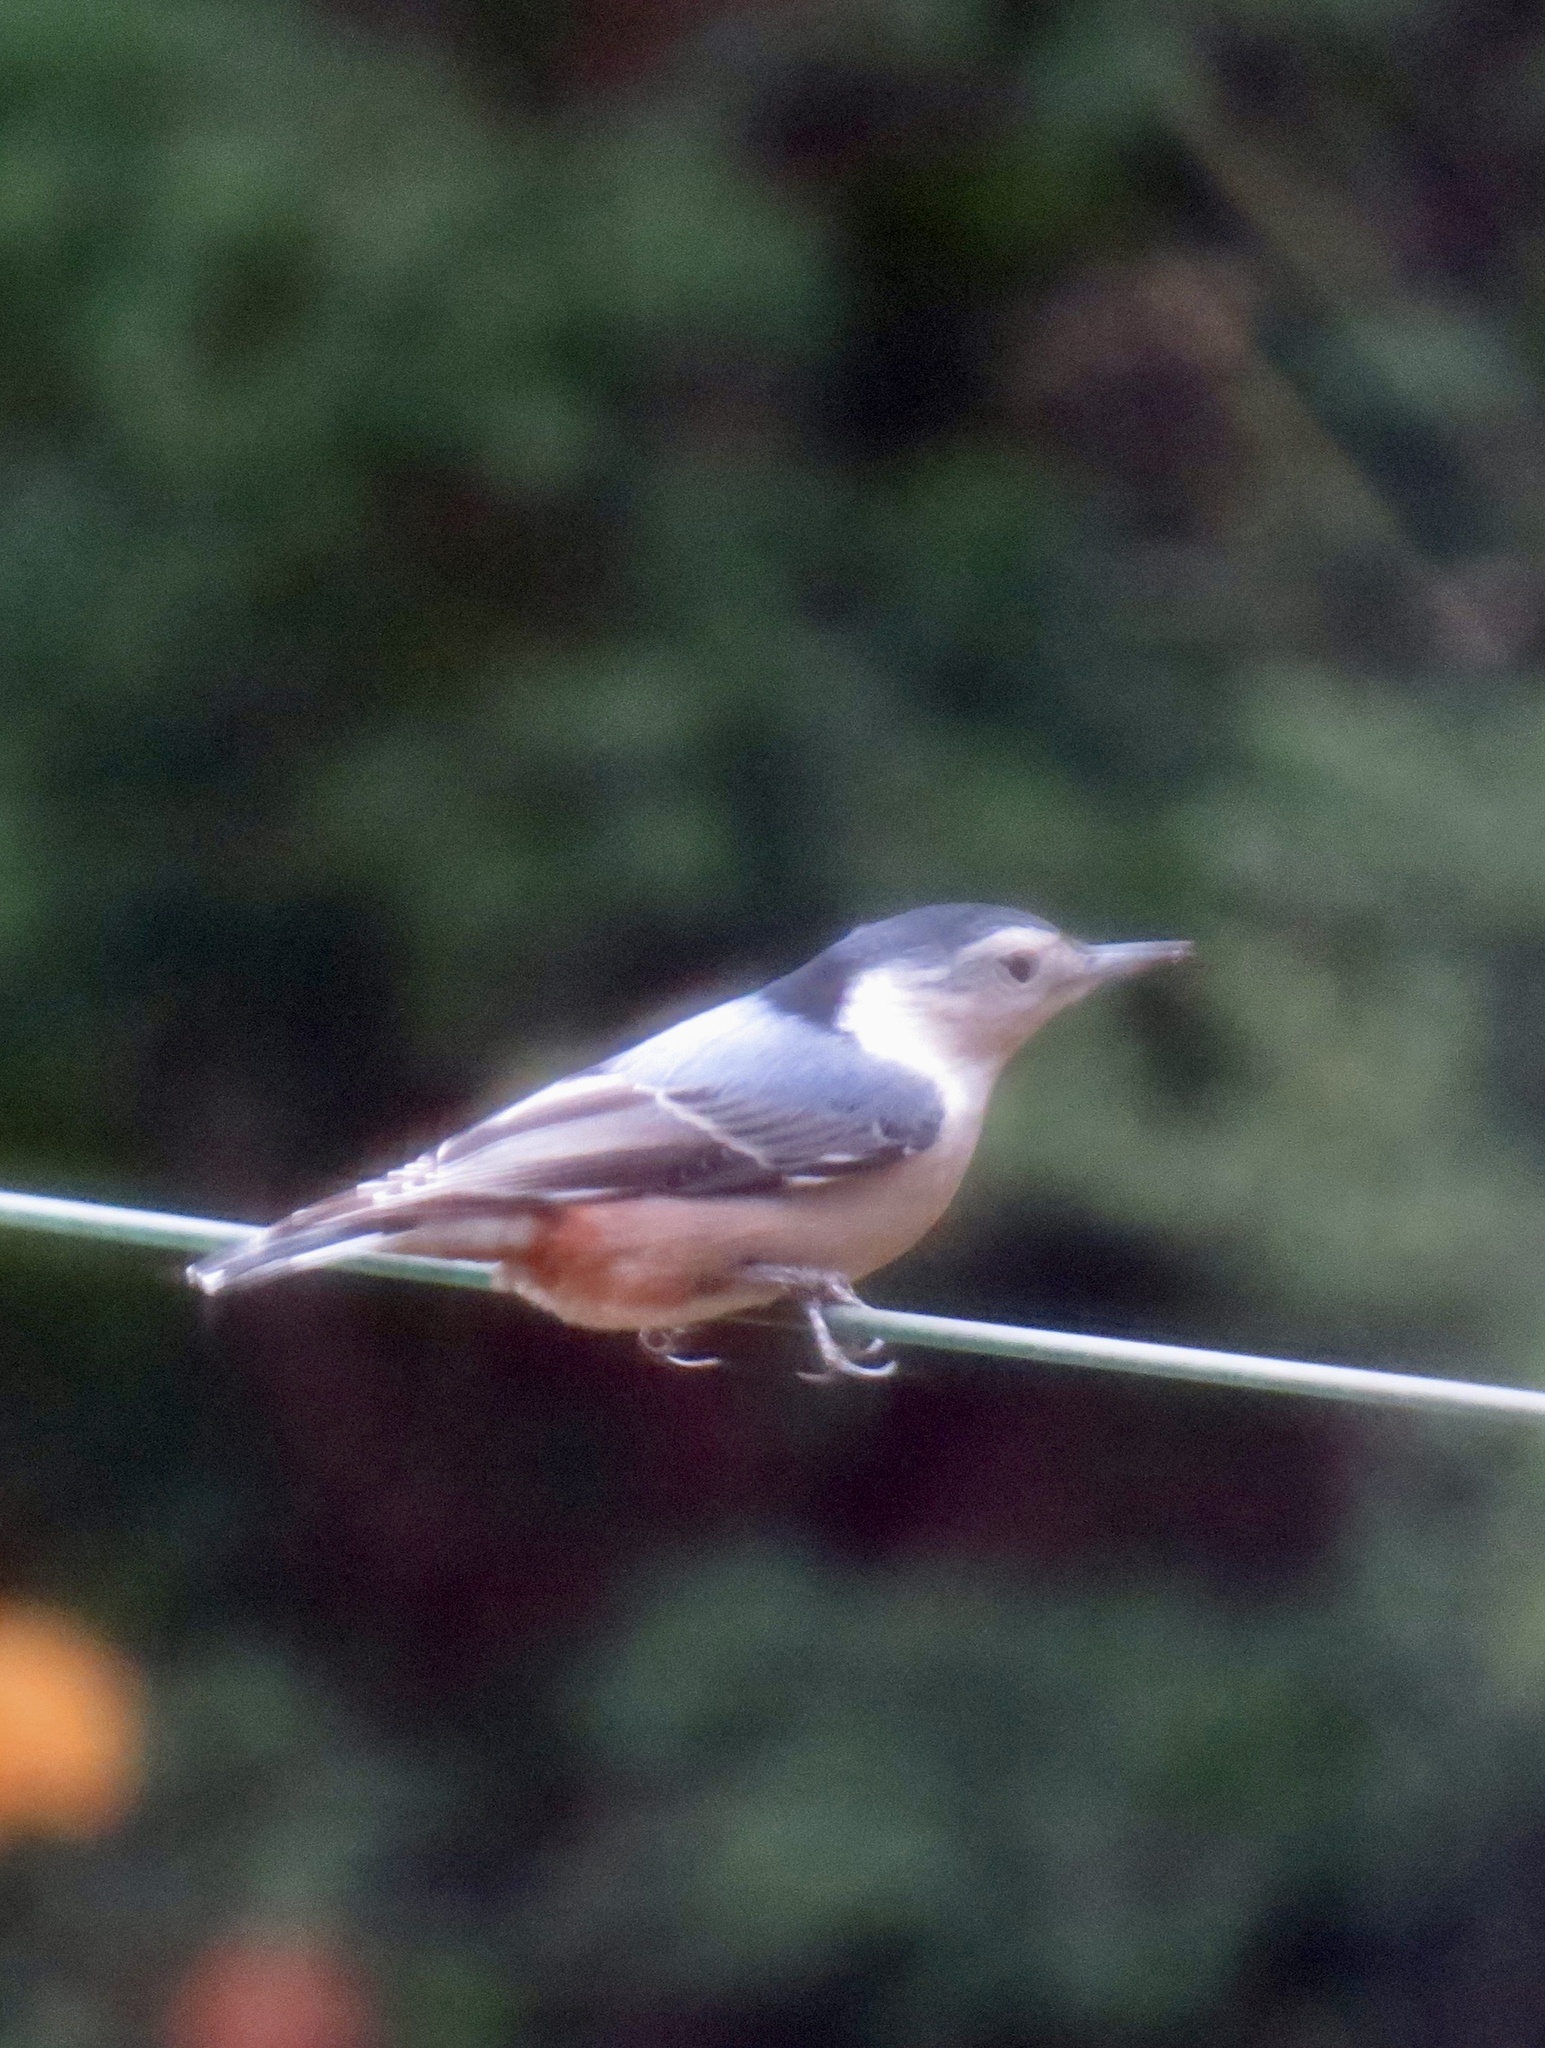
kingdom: Animalia
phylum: Chordata
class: Aves
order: Passeriformes
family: Sittidae
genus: Sitta
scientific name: Sitta carolinensis
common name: White-breasted nuthatch
